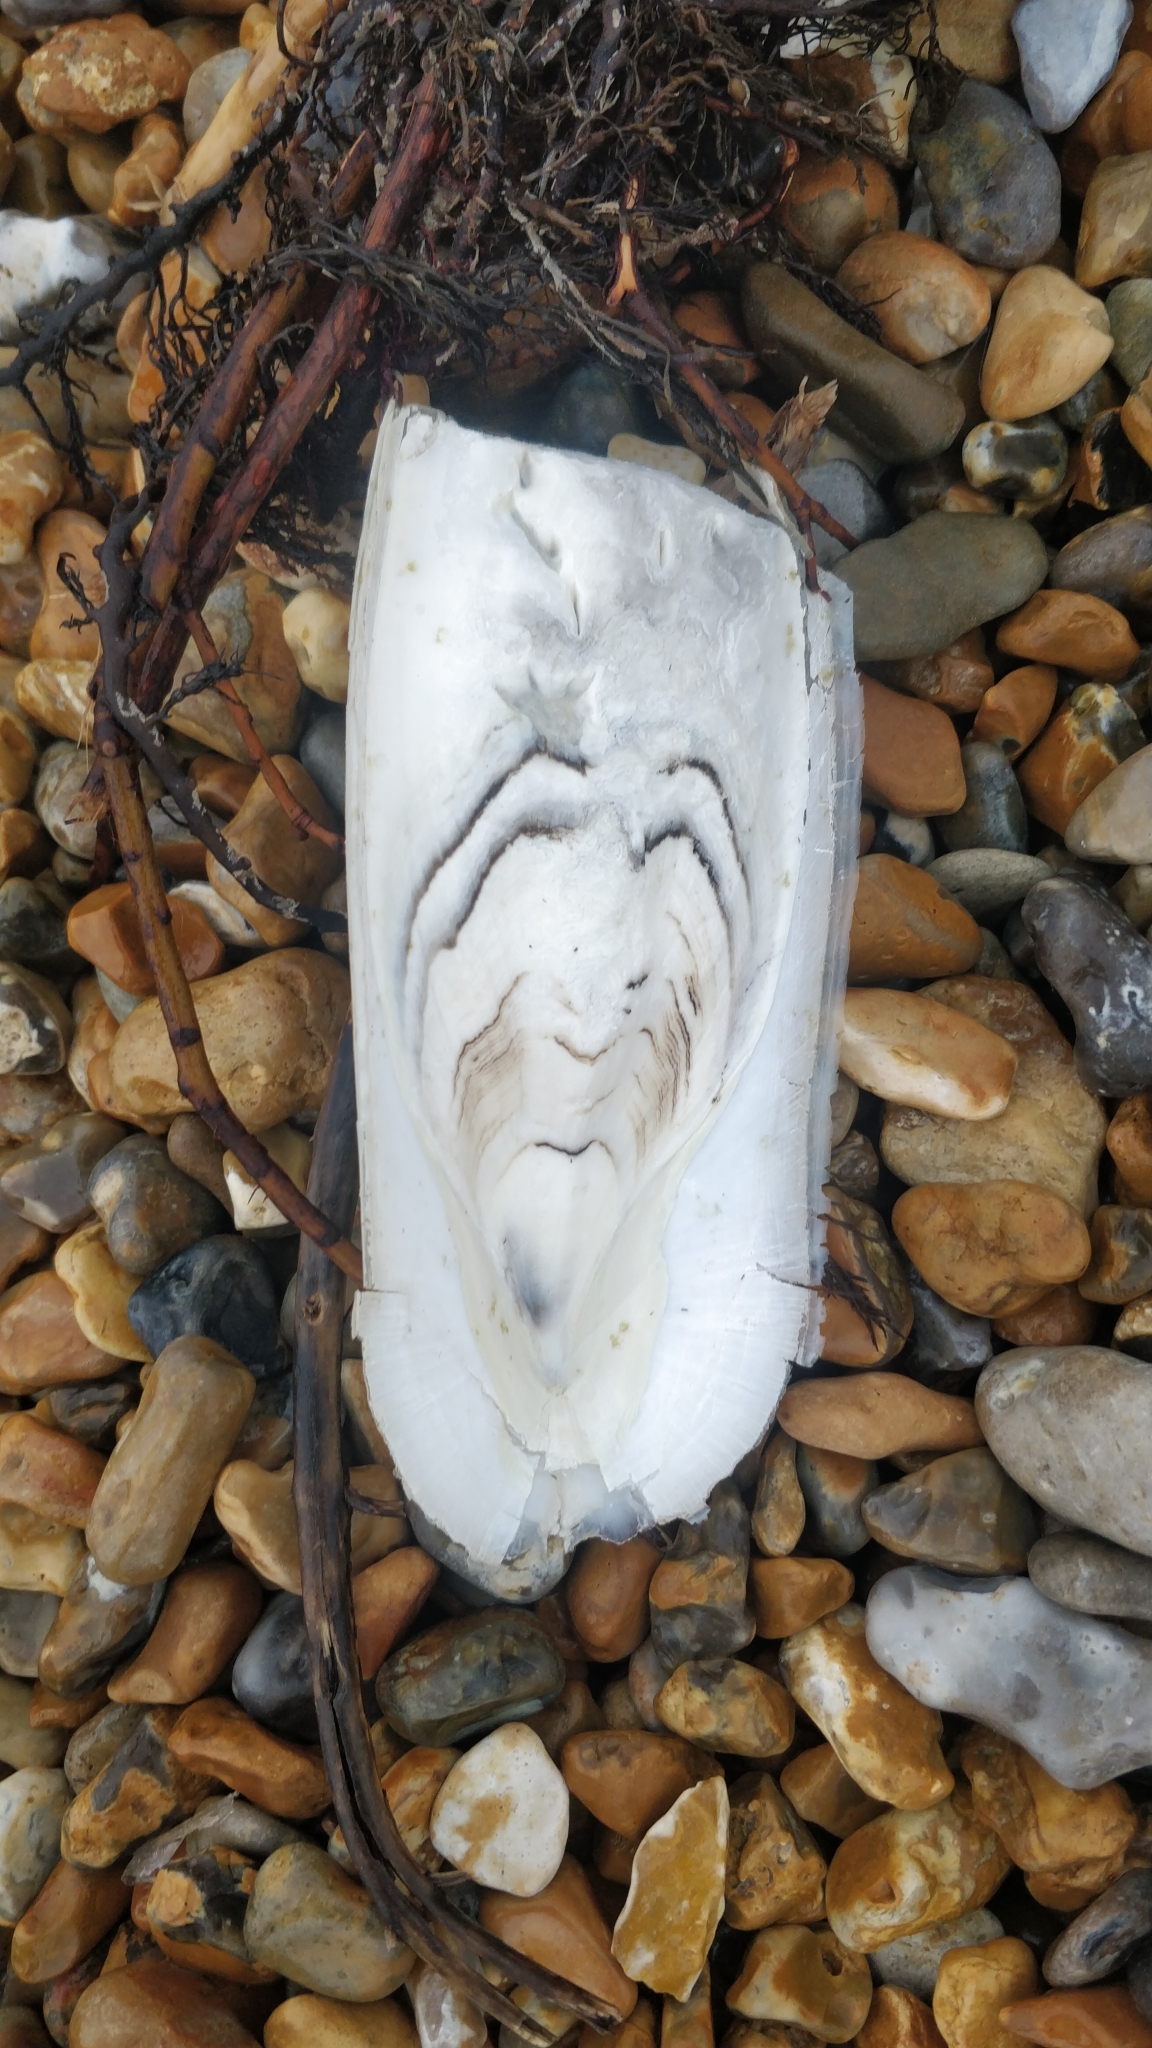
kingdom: Animalia
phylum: Mollusca
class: Cephalopoda
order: Sepiida
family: Sepiidae
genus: Sepia
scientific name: Sepia officinalis
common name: Common cuttlefish
